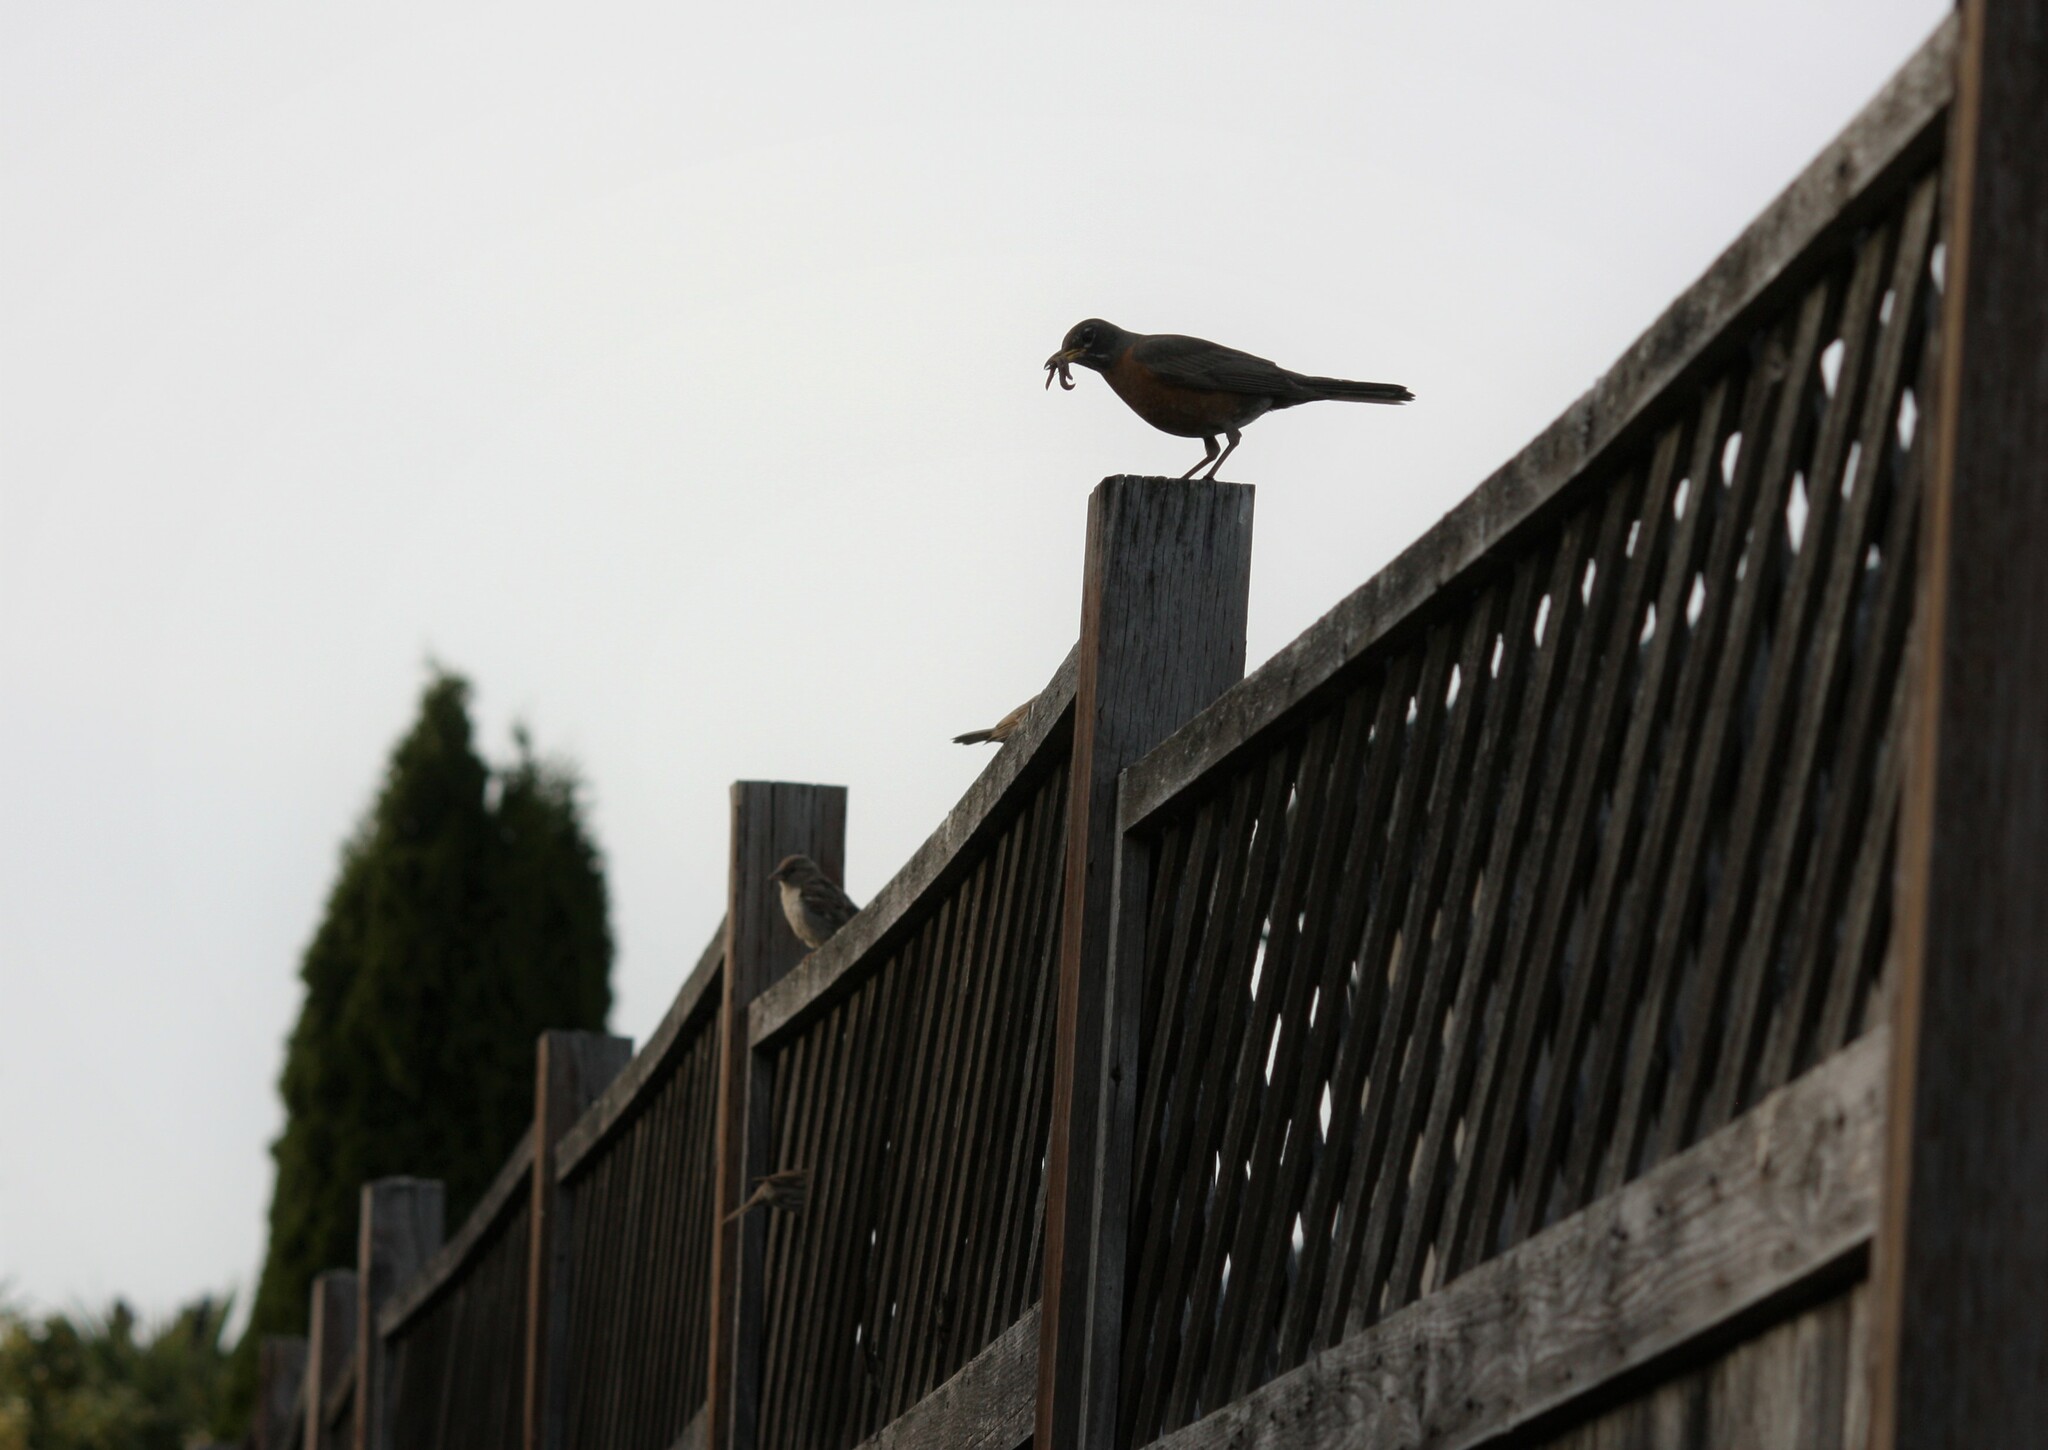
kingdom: Animalia
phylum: Chordata
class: Aves
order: Passeriformes
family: Turdidae
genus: Turdus
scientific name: Turdus migratorius
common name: American robin
